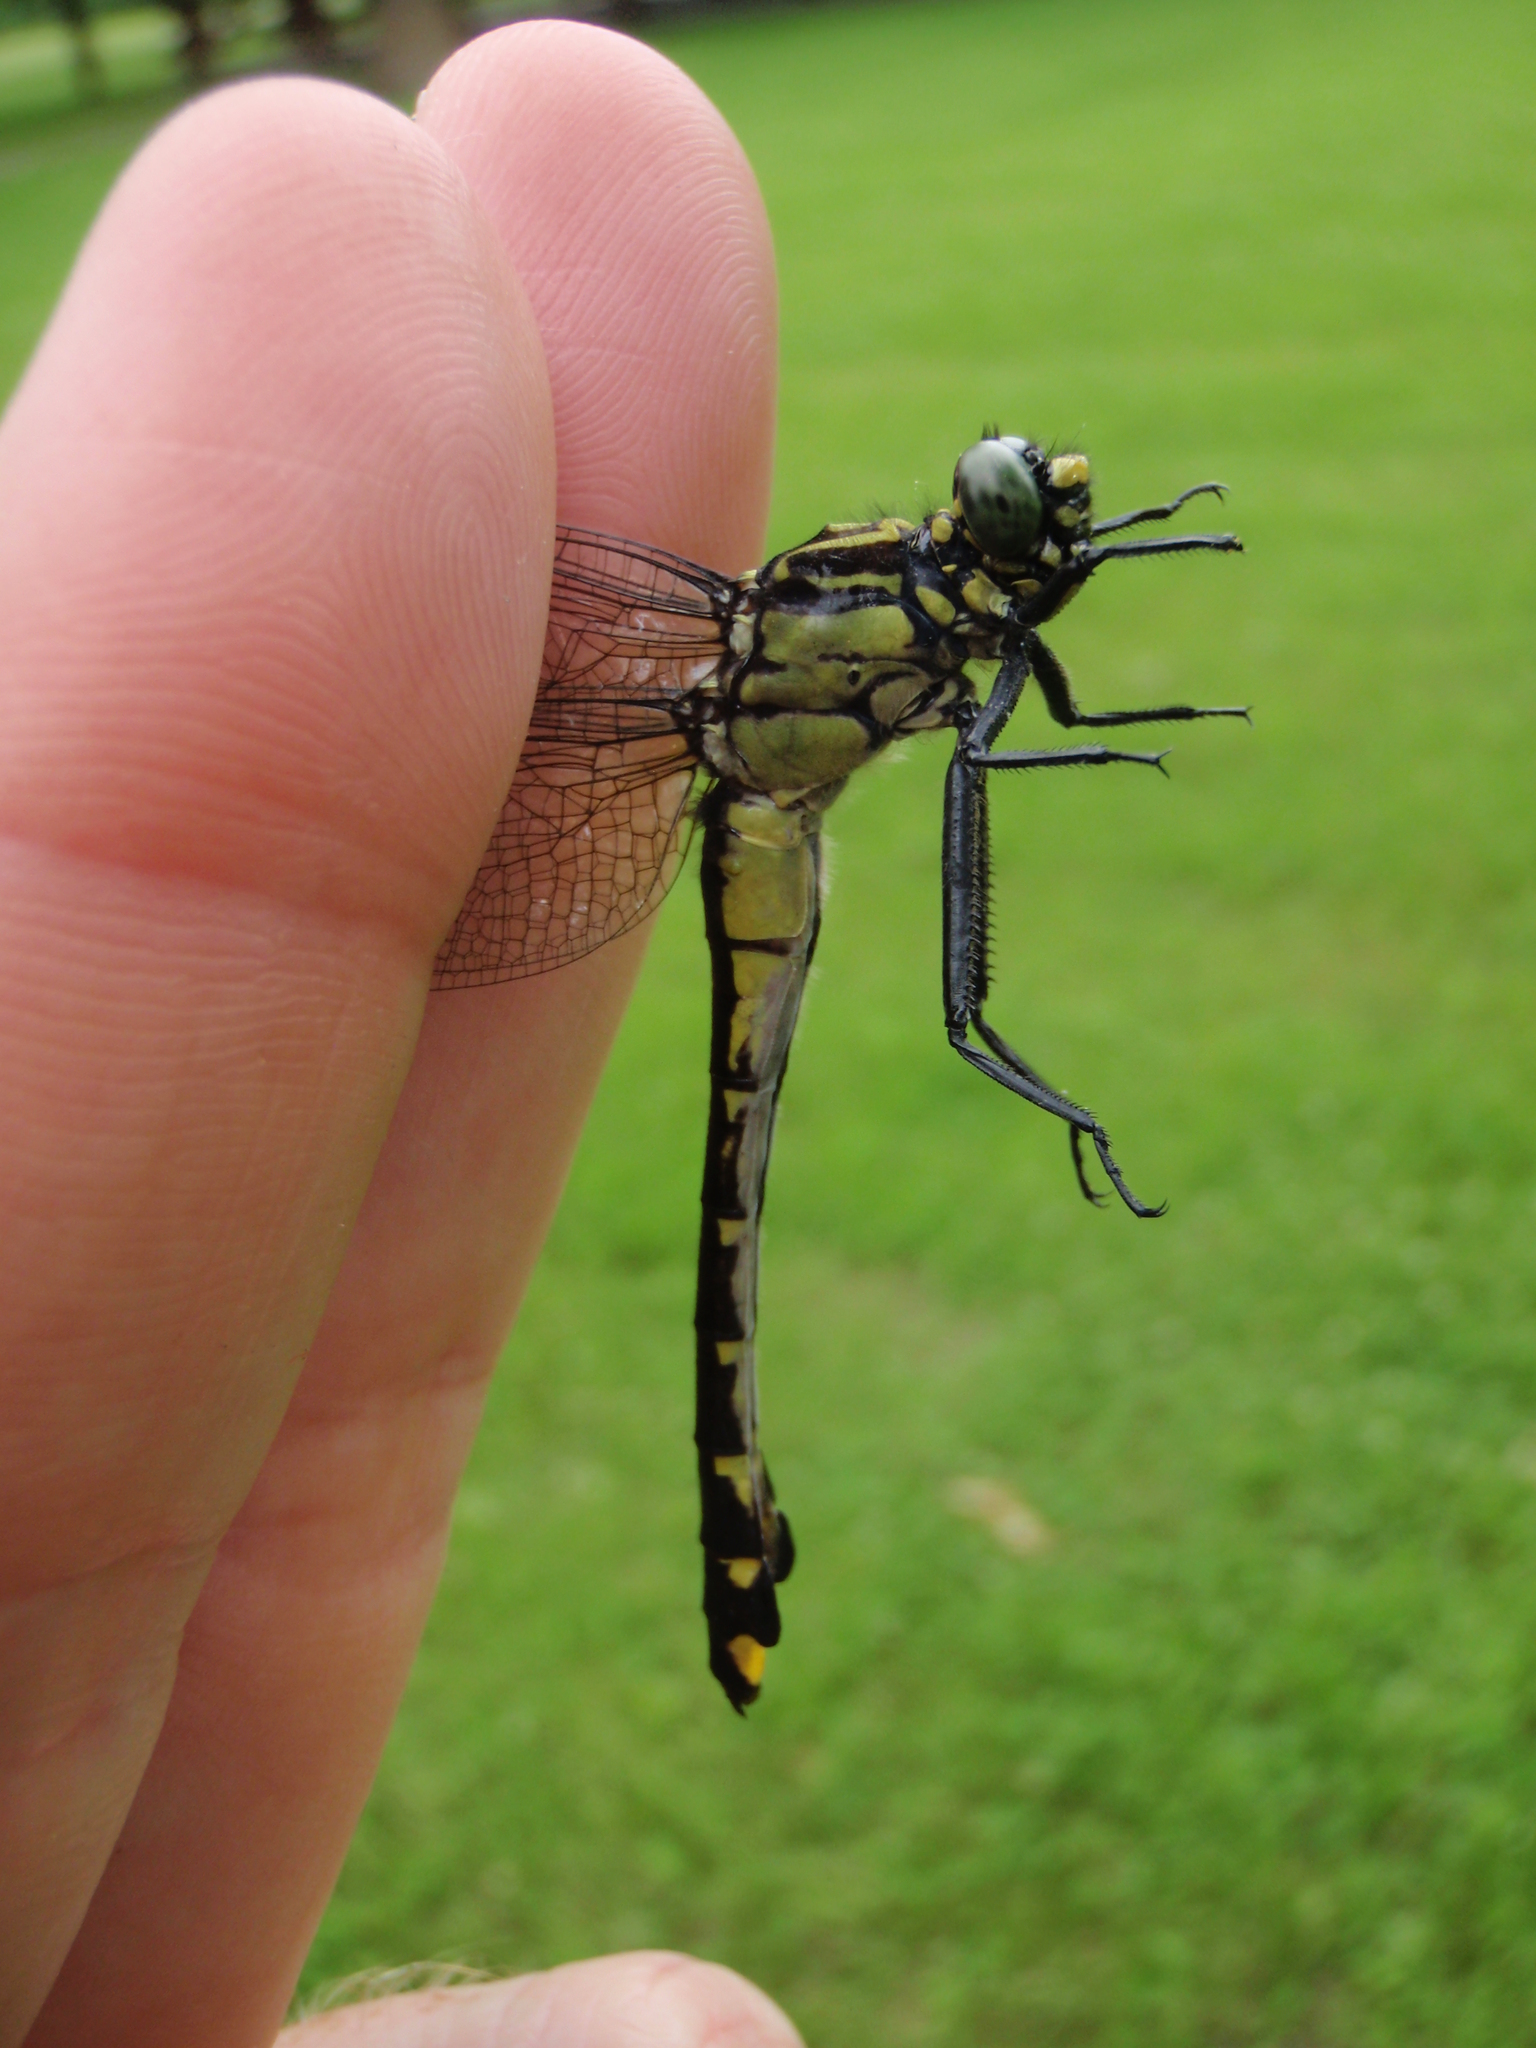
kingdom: Animalia
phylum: Arthropoda
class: Insecta
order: Odonata
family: Gomphidae
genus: Gomphurus
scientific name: Gomphurus vastus
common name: Cobra clubtail
